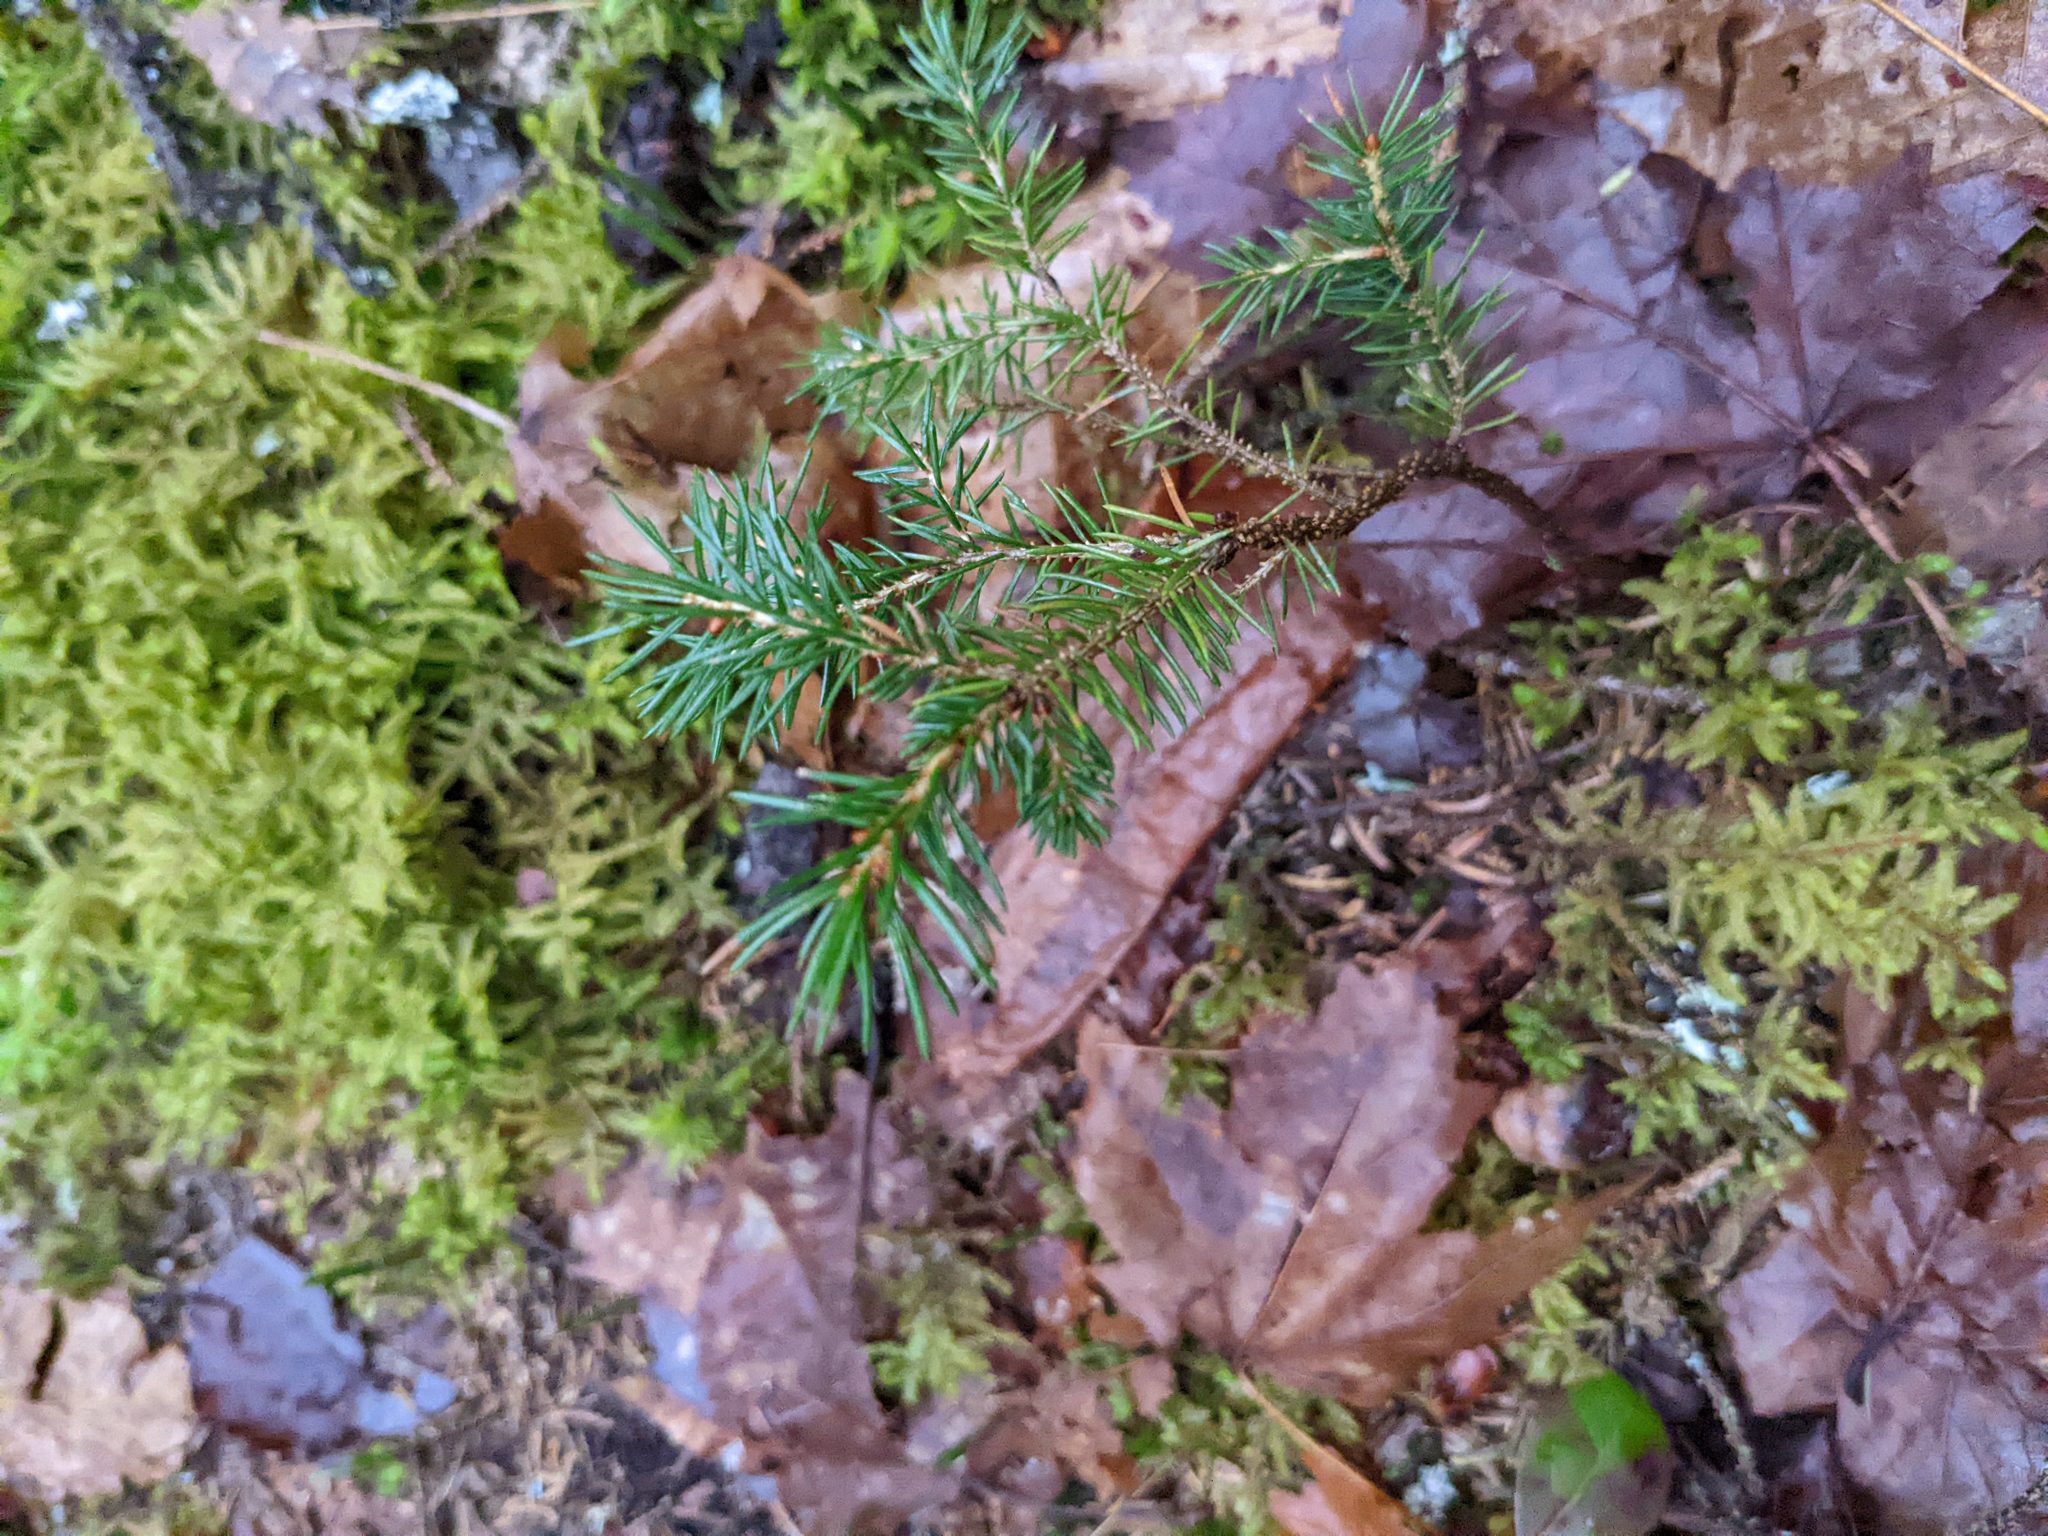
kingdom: Plantae
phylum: Tracheophyta
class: Pinopsida
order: Pinales
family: Pinaceae
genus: Picea
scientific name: Picea rubens
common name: Red spruce
